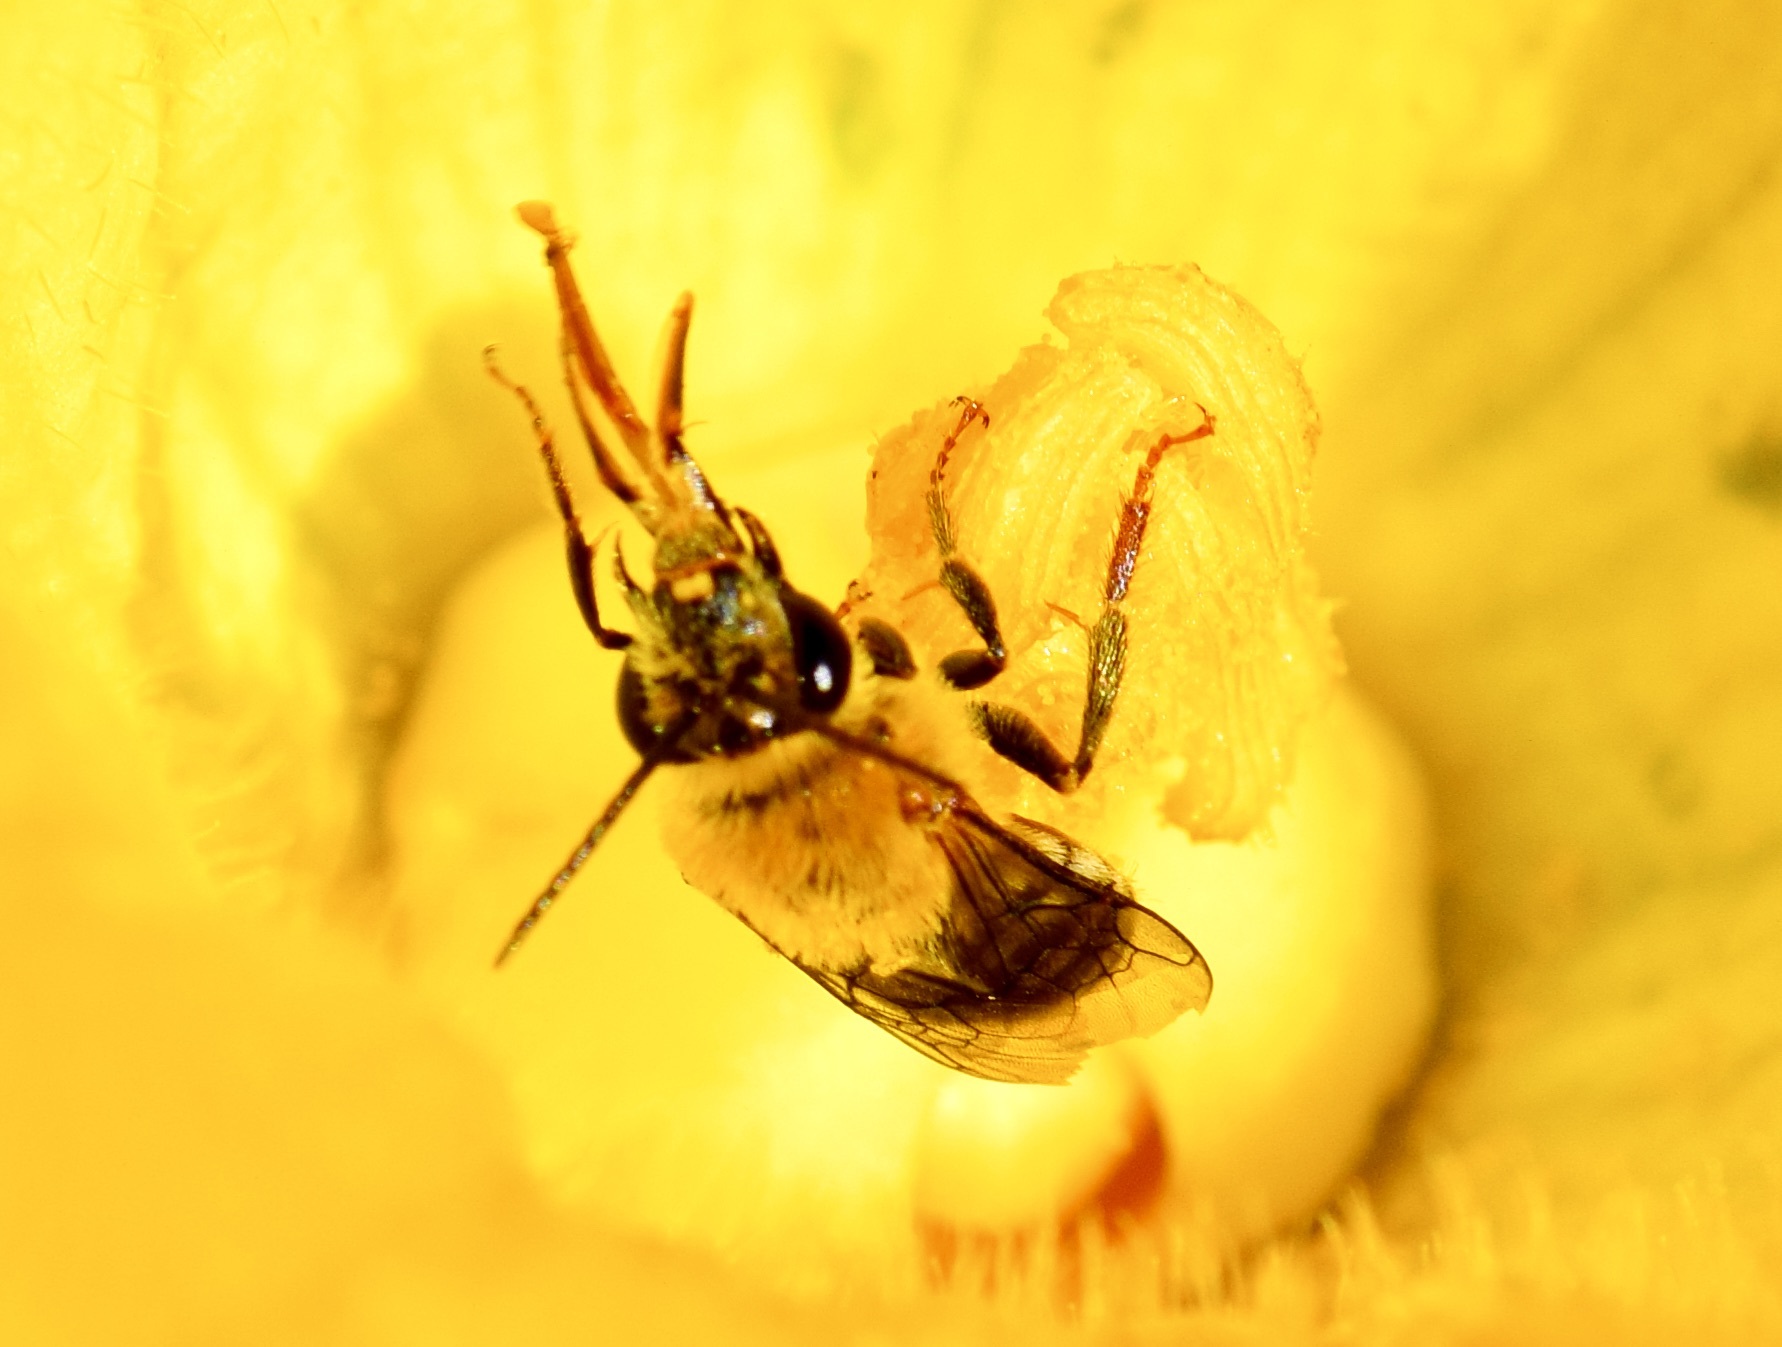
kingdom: Animalia
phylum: Arthropoda
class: Insecta
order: Hymenoptera
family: Apidae
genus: Peponapis
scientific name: Peponapis pruinosa
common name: Pruinose squash bee
